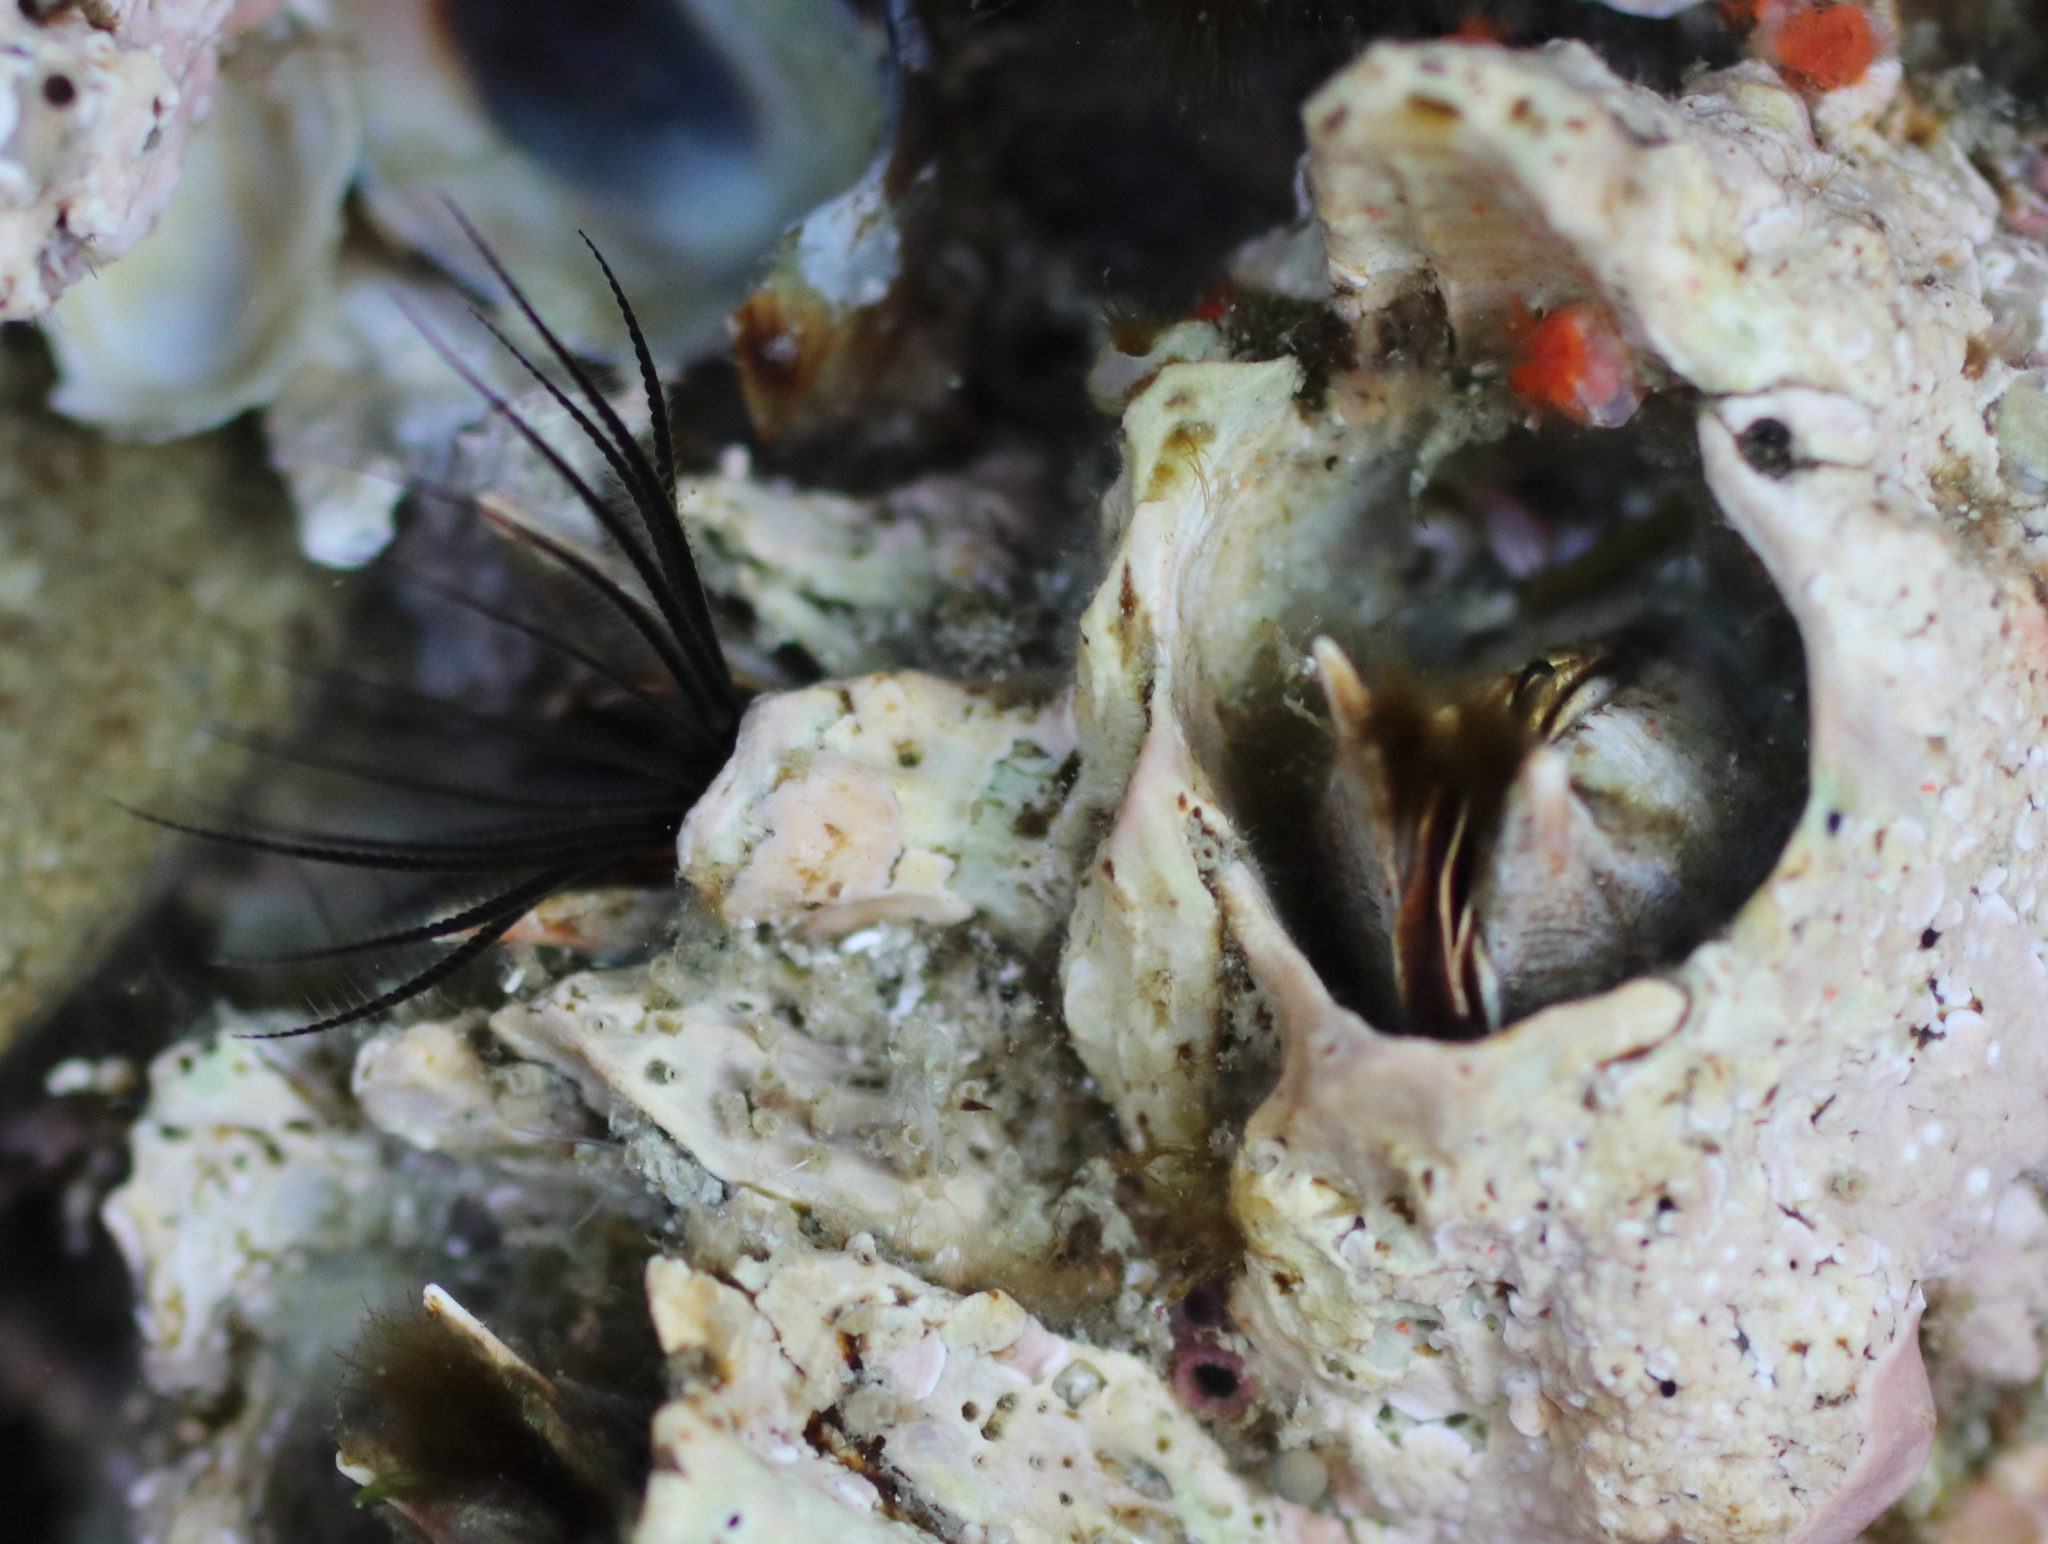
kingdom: Animalia
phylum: Arthropoda
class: Maxillopoda
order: Sessilia
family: Archaeobalanidae
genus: Semibalanus
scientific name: Semibalanus cariosus
